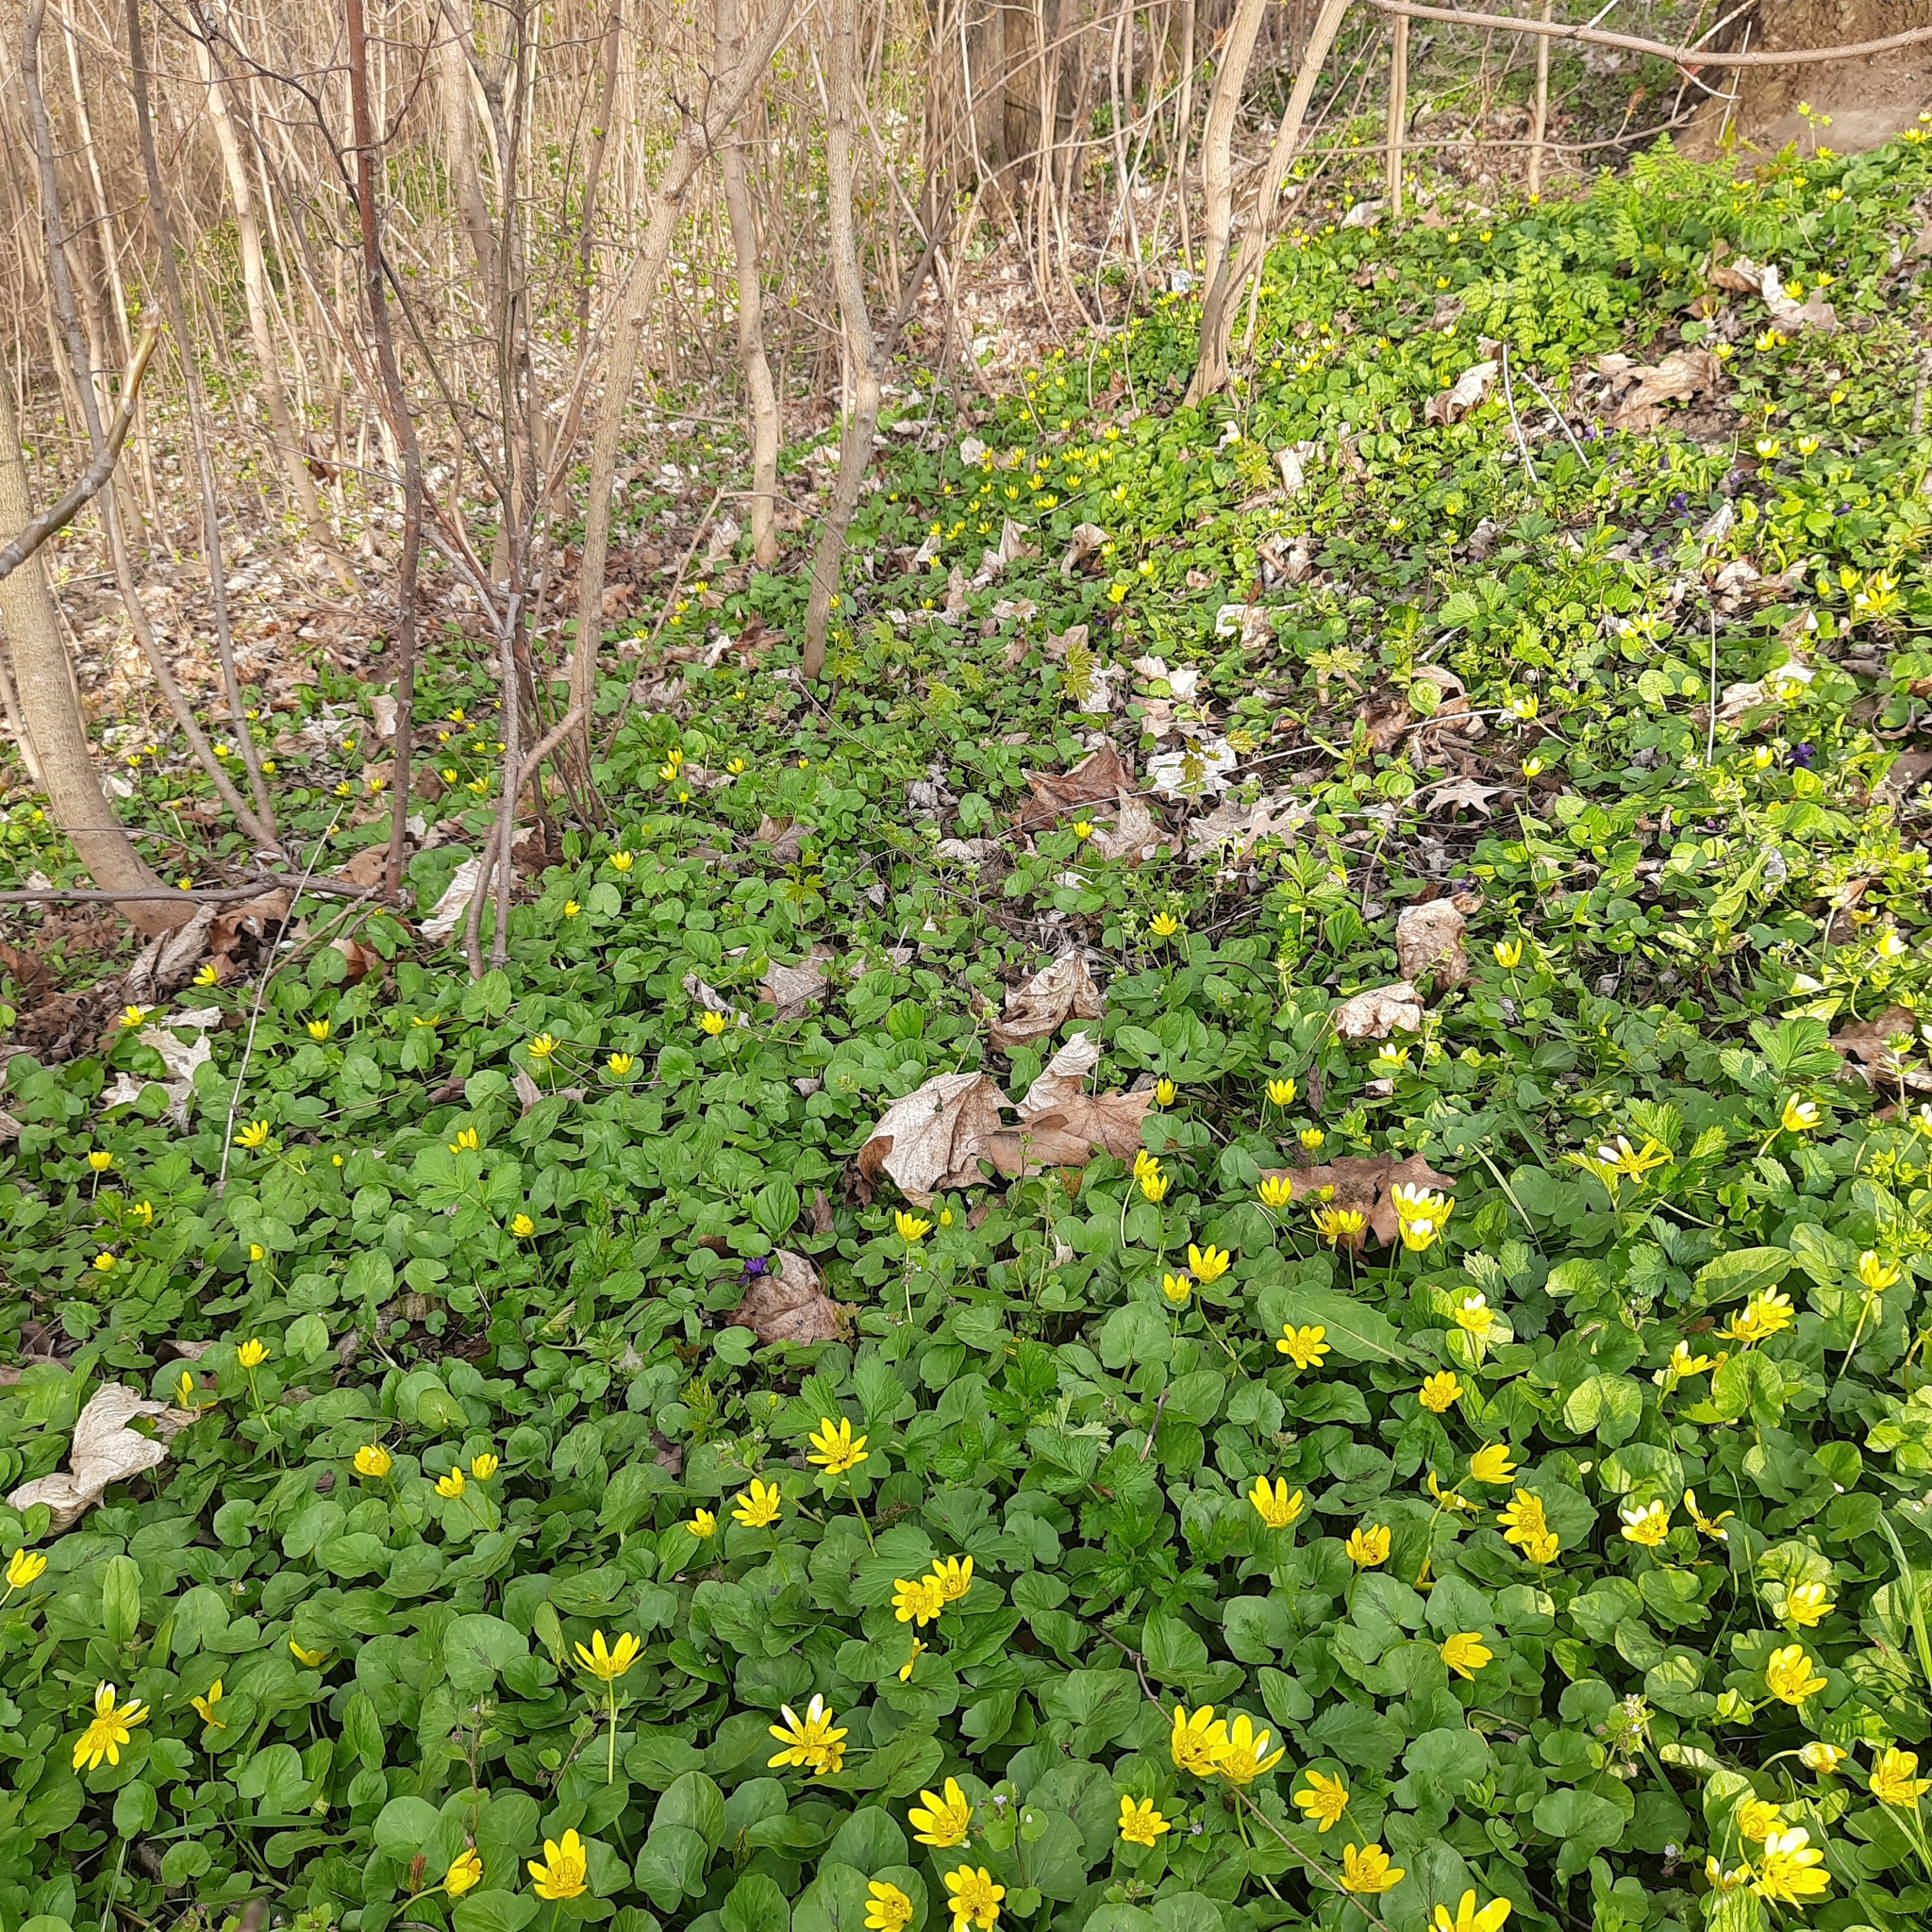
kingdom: Plantae
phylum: Tracheophyta
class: Magnoliopsida
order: Ranunculales
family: Ranunculaceae
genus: Ficaria
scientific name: Ficaria verna
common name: Lesser celandine
